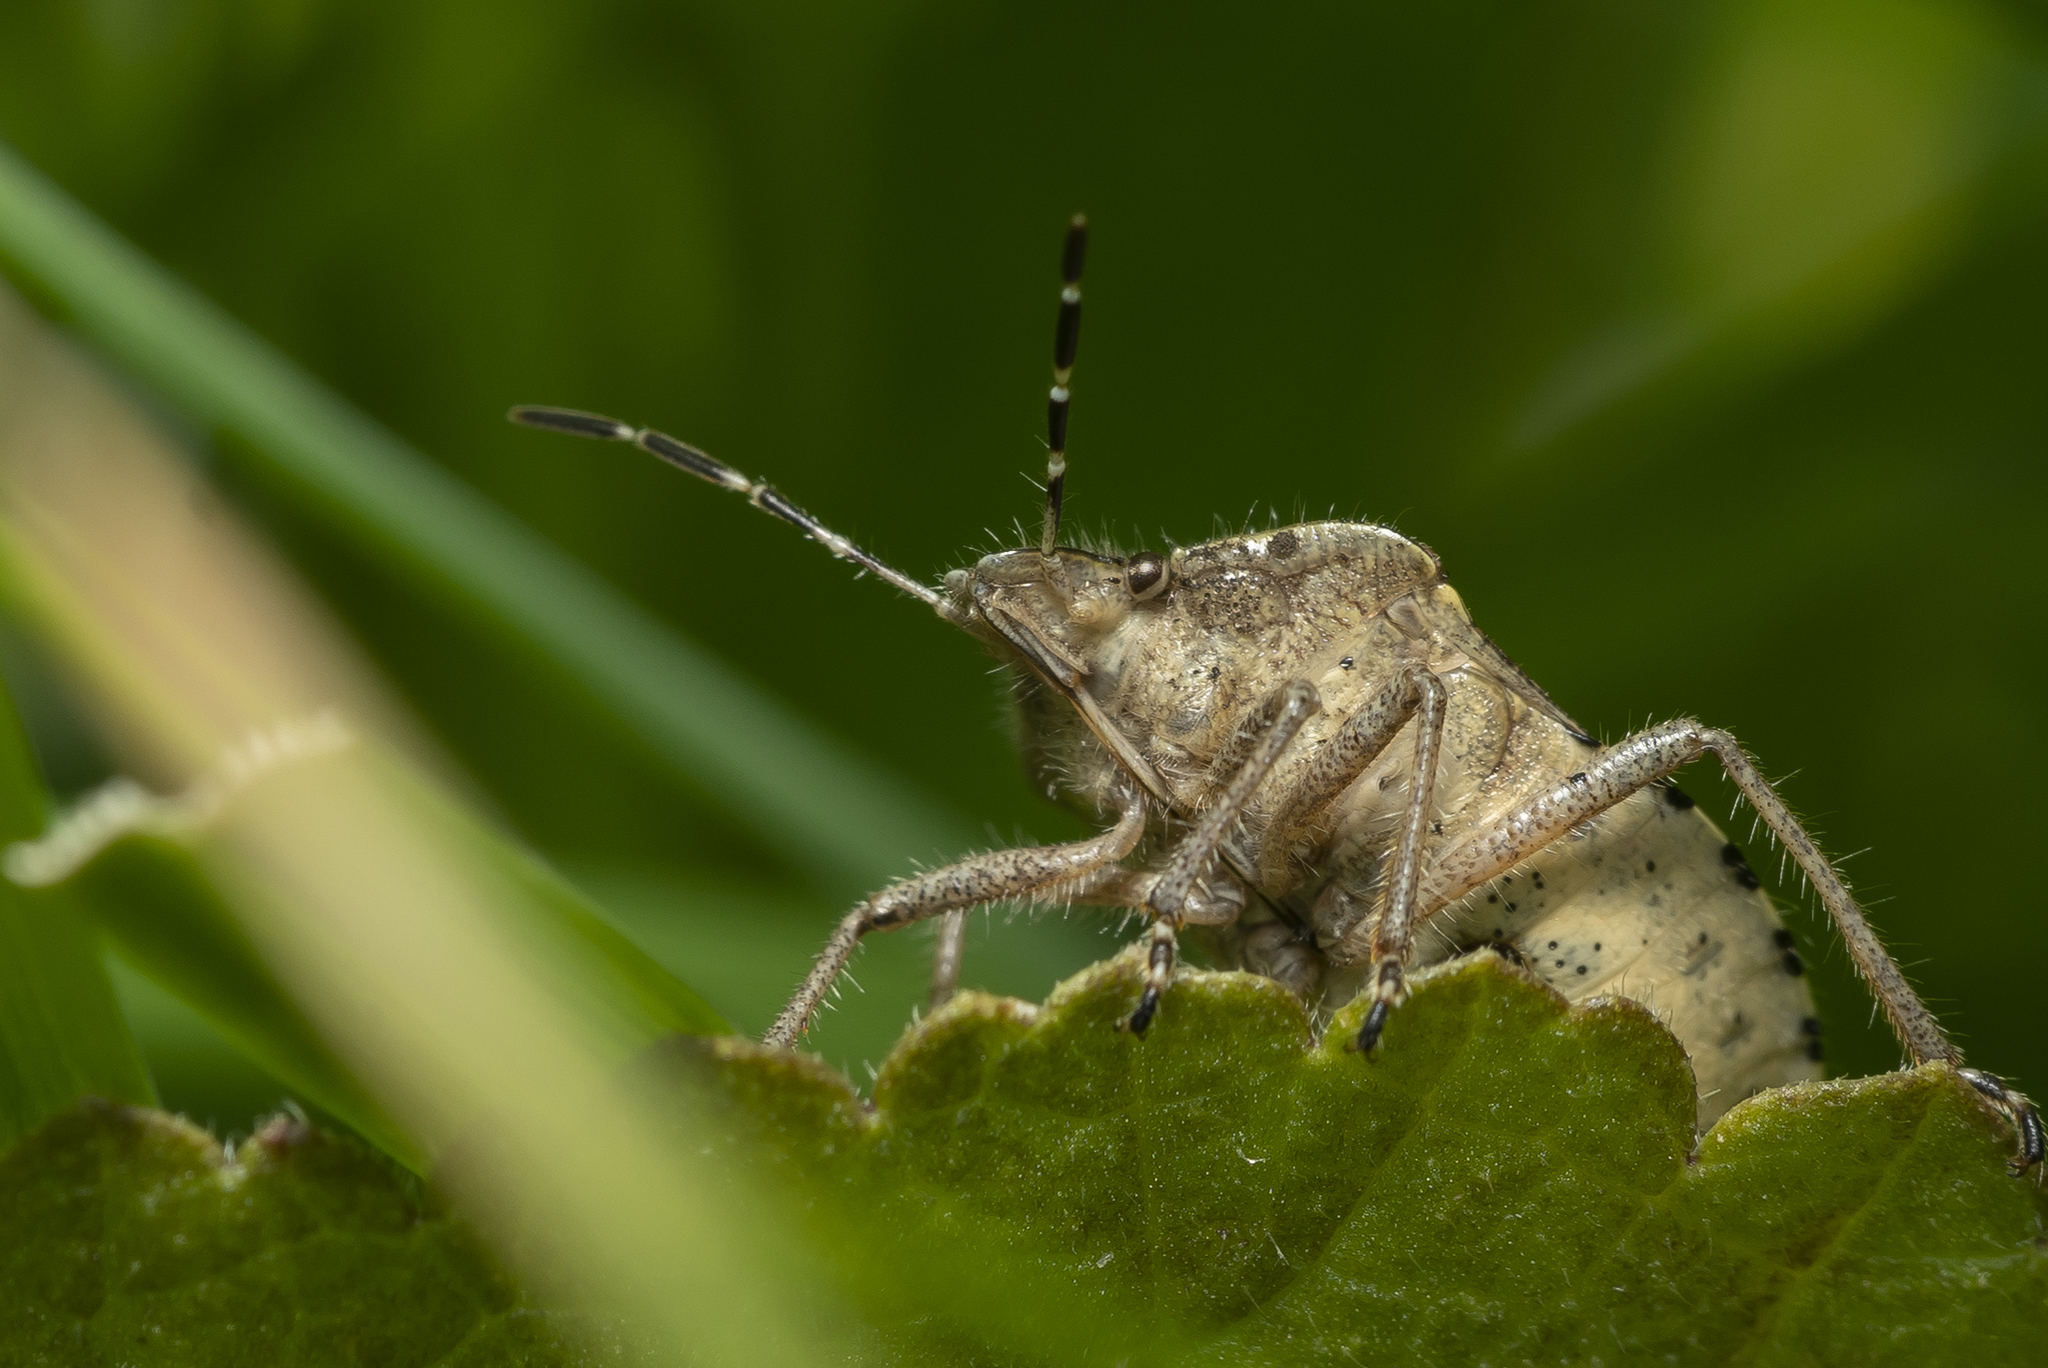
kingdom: Animalia
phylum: Arthropoda
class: Insecta
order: Hemiptera
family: Pentatomidae
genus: Dolycoris
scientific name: Dolycoris baccarum
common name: Sloe bug
